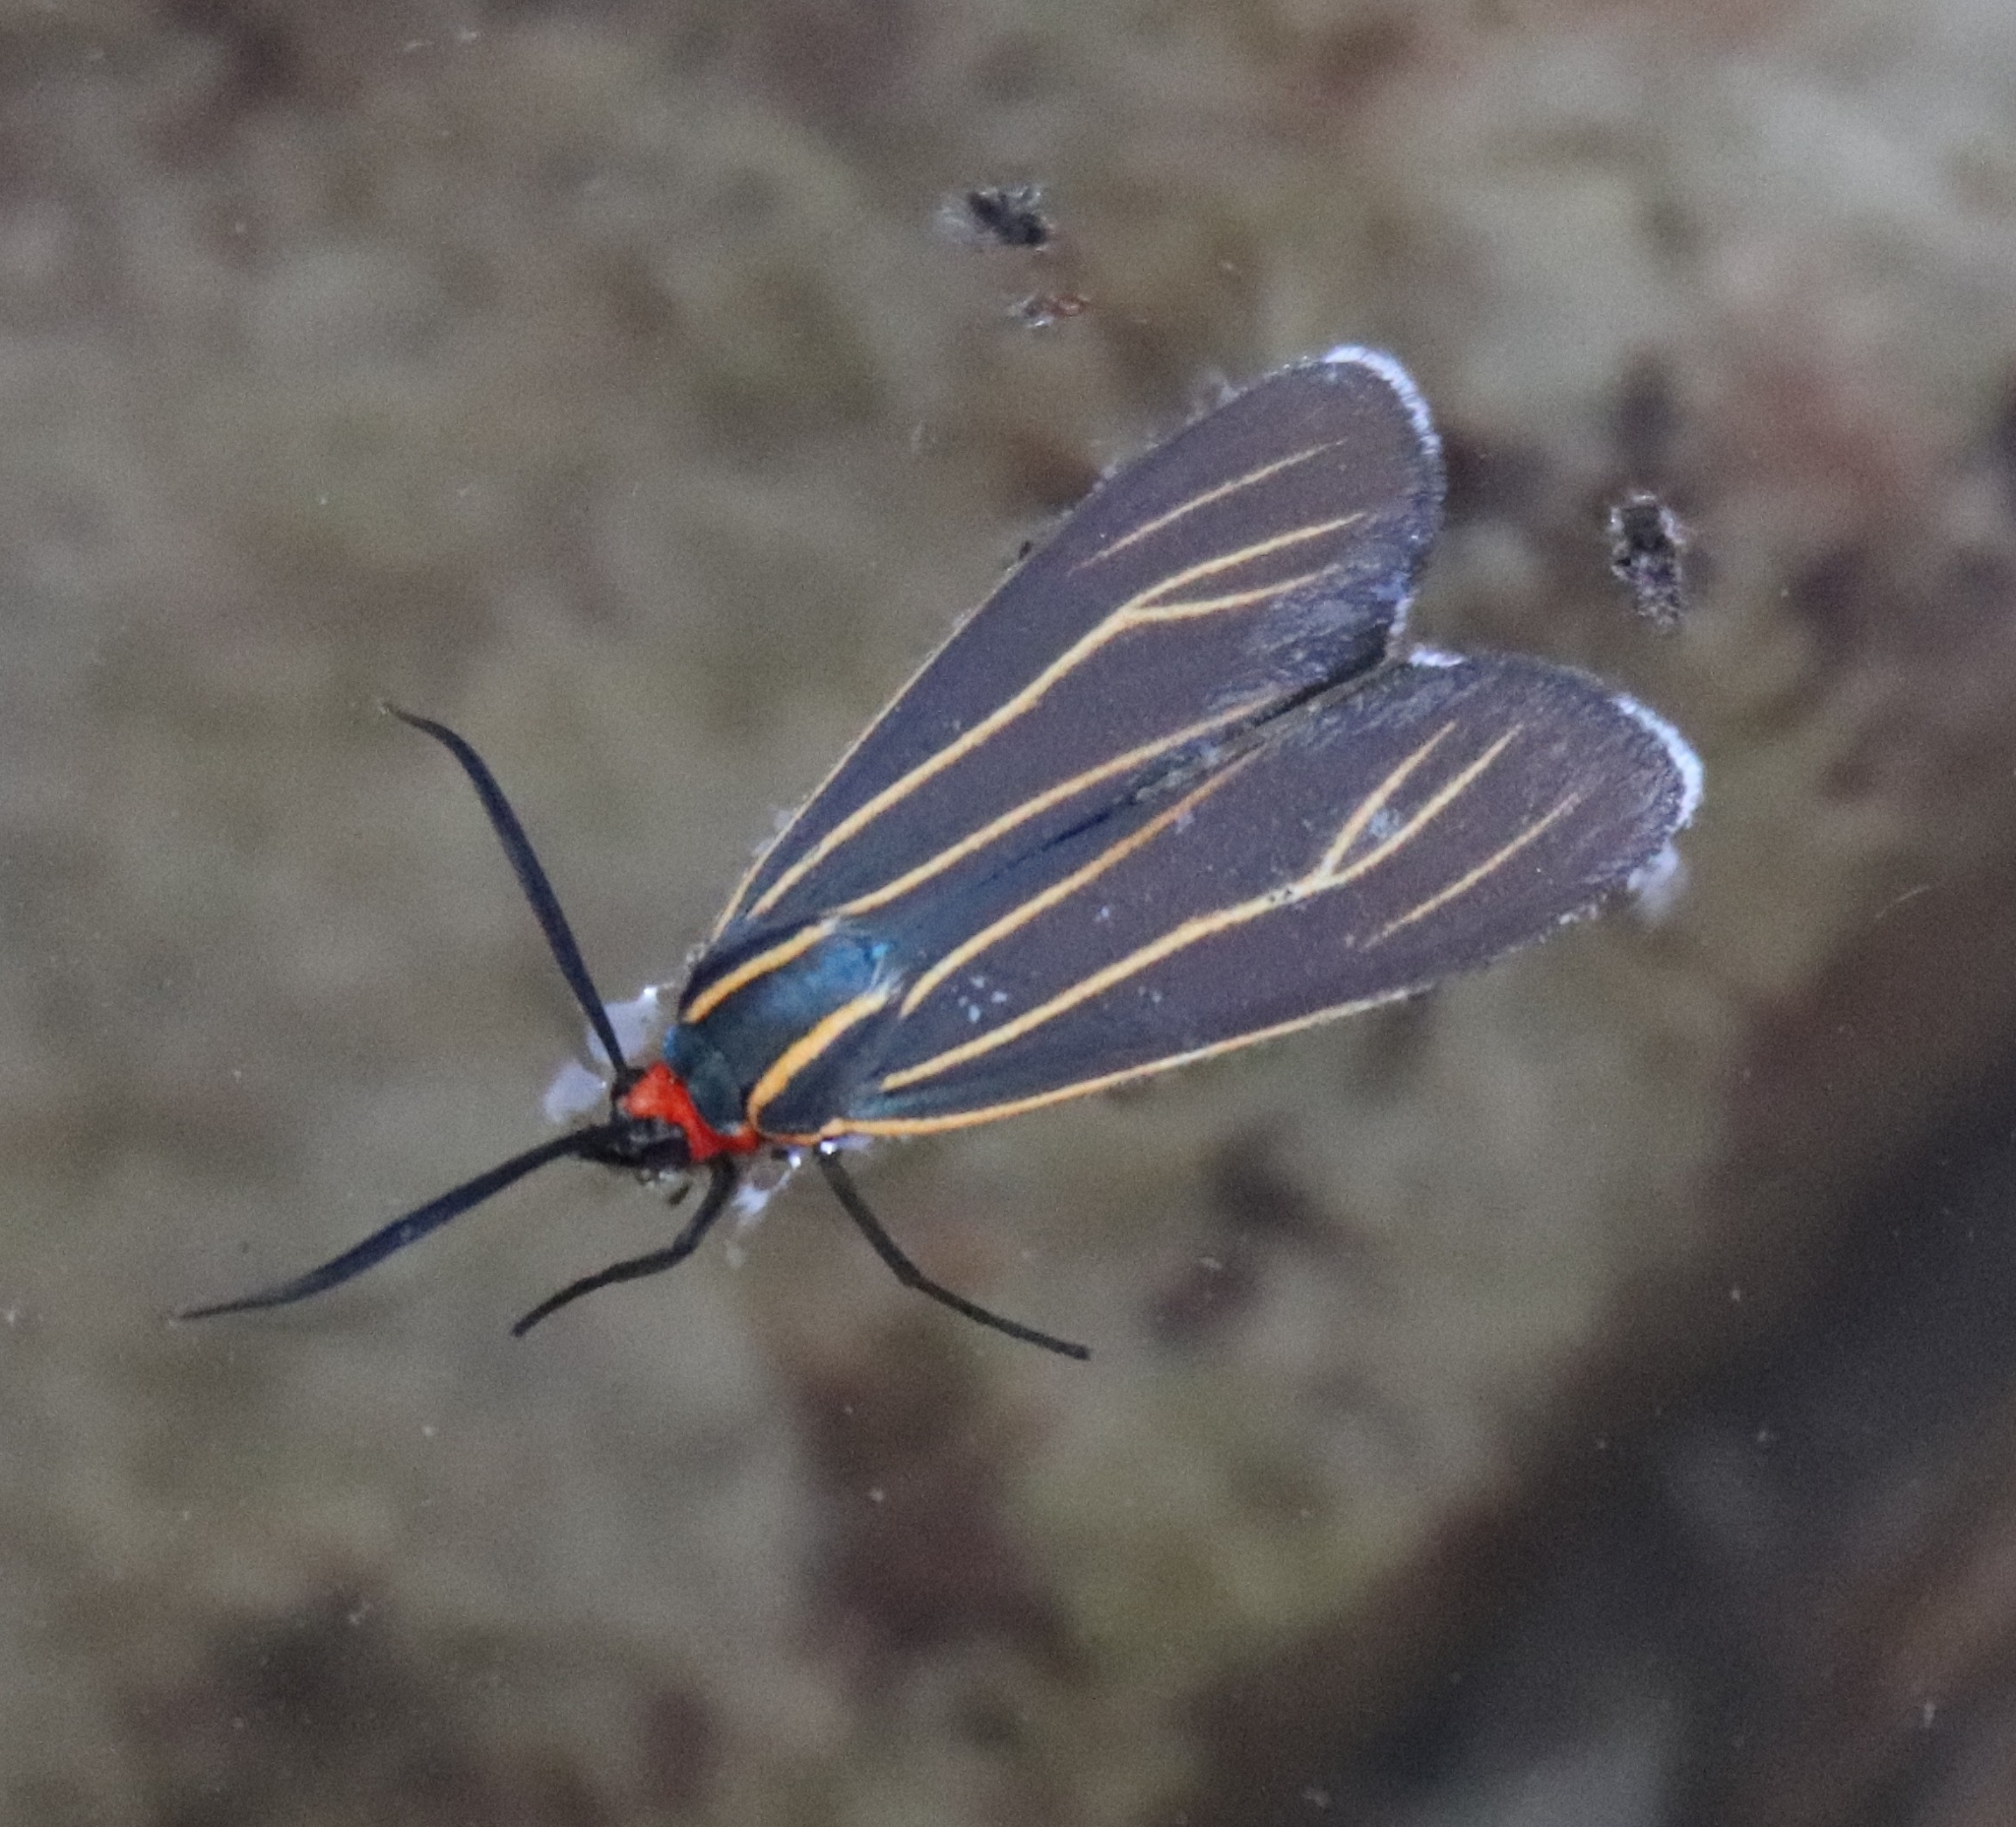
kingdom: Animalia
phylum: Arthropoda
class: Insecta
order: Lepidoptera
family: Erebidae
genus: Ctenucha
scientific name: Ctenucha venosa
